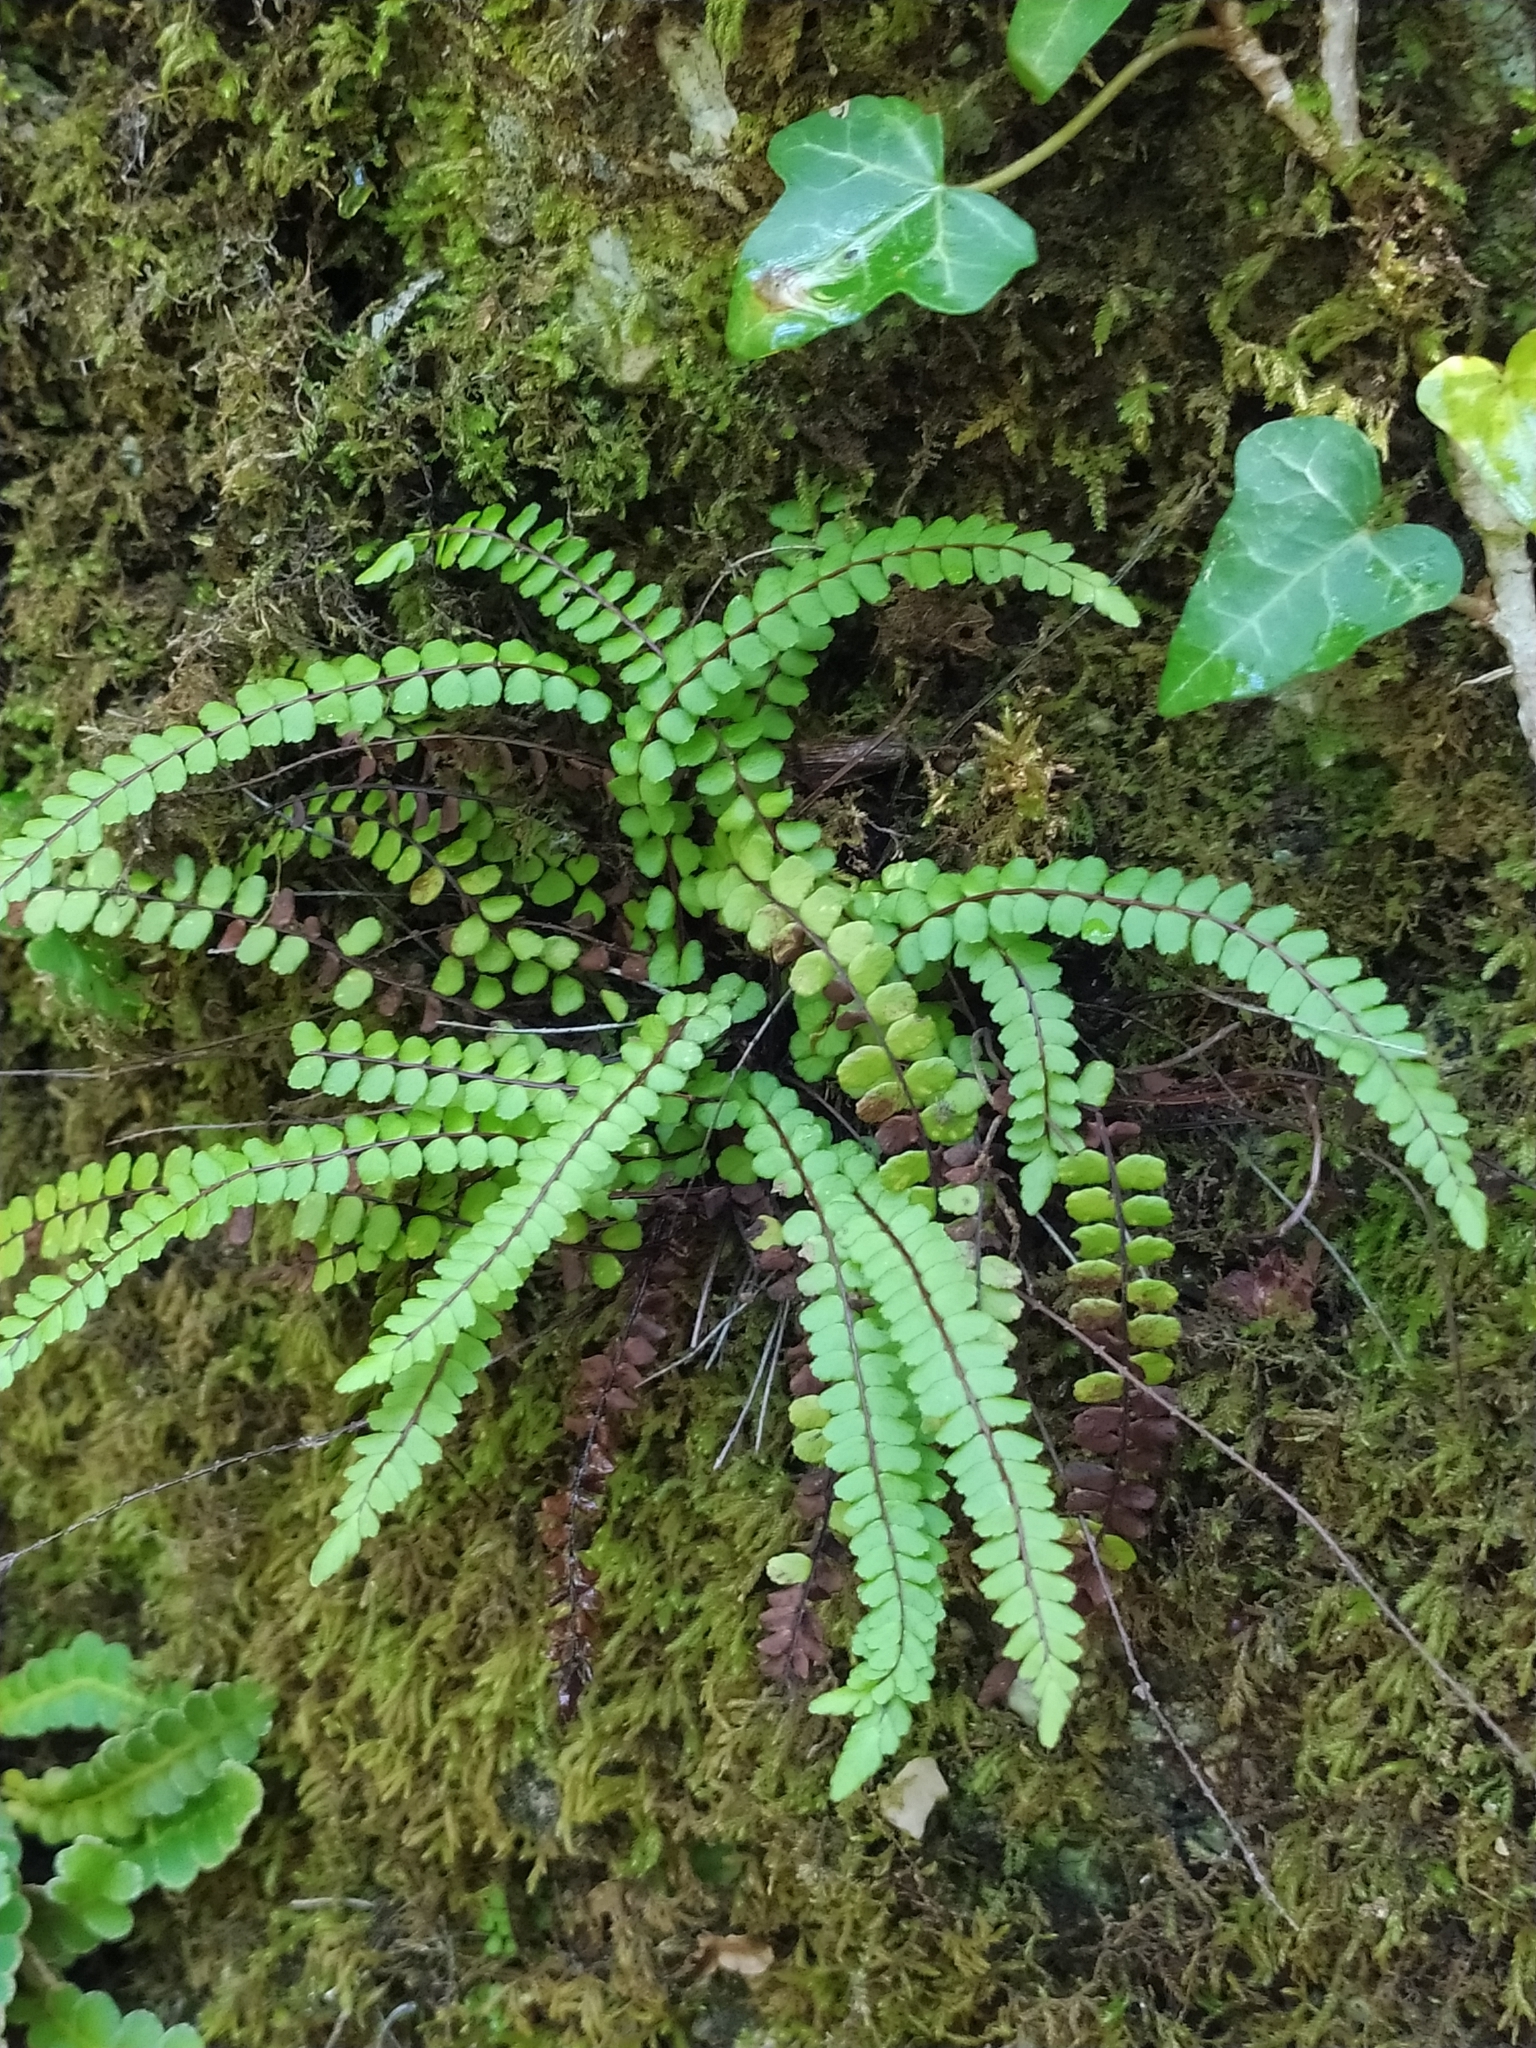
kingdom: Plantae
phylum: Tracheophyta
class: Polypodiopsida
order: Polypodiales
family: Aspleniaceae
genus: Asplenium
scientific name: Asplenium trichomanes
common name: Maidenhair spleenwort
